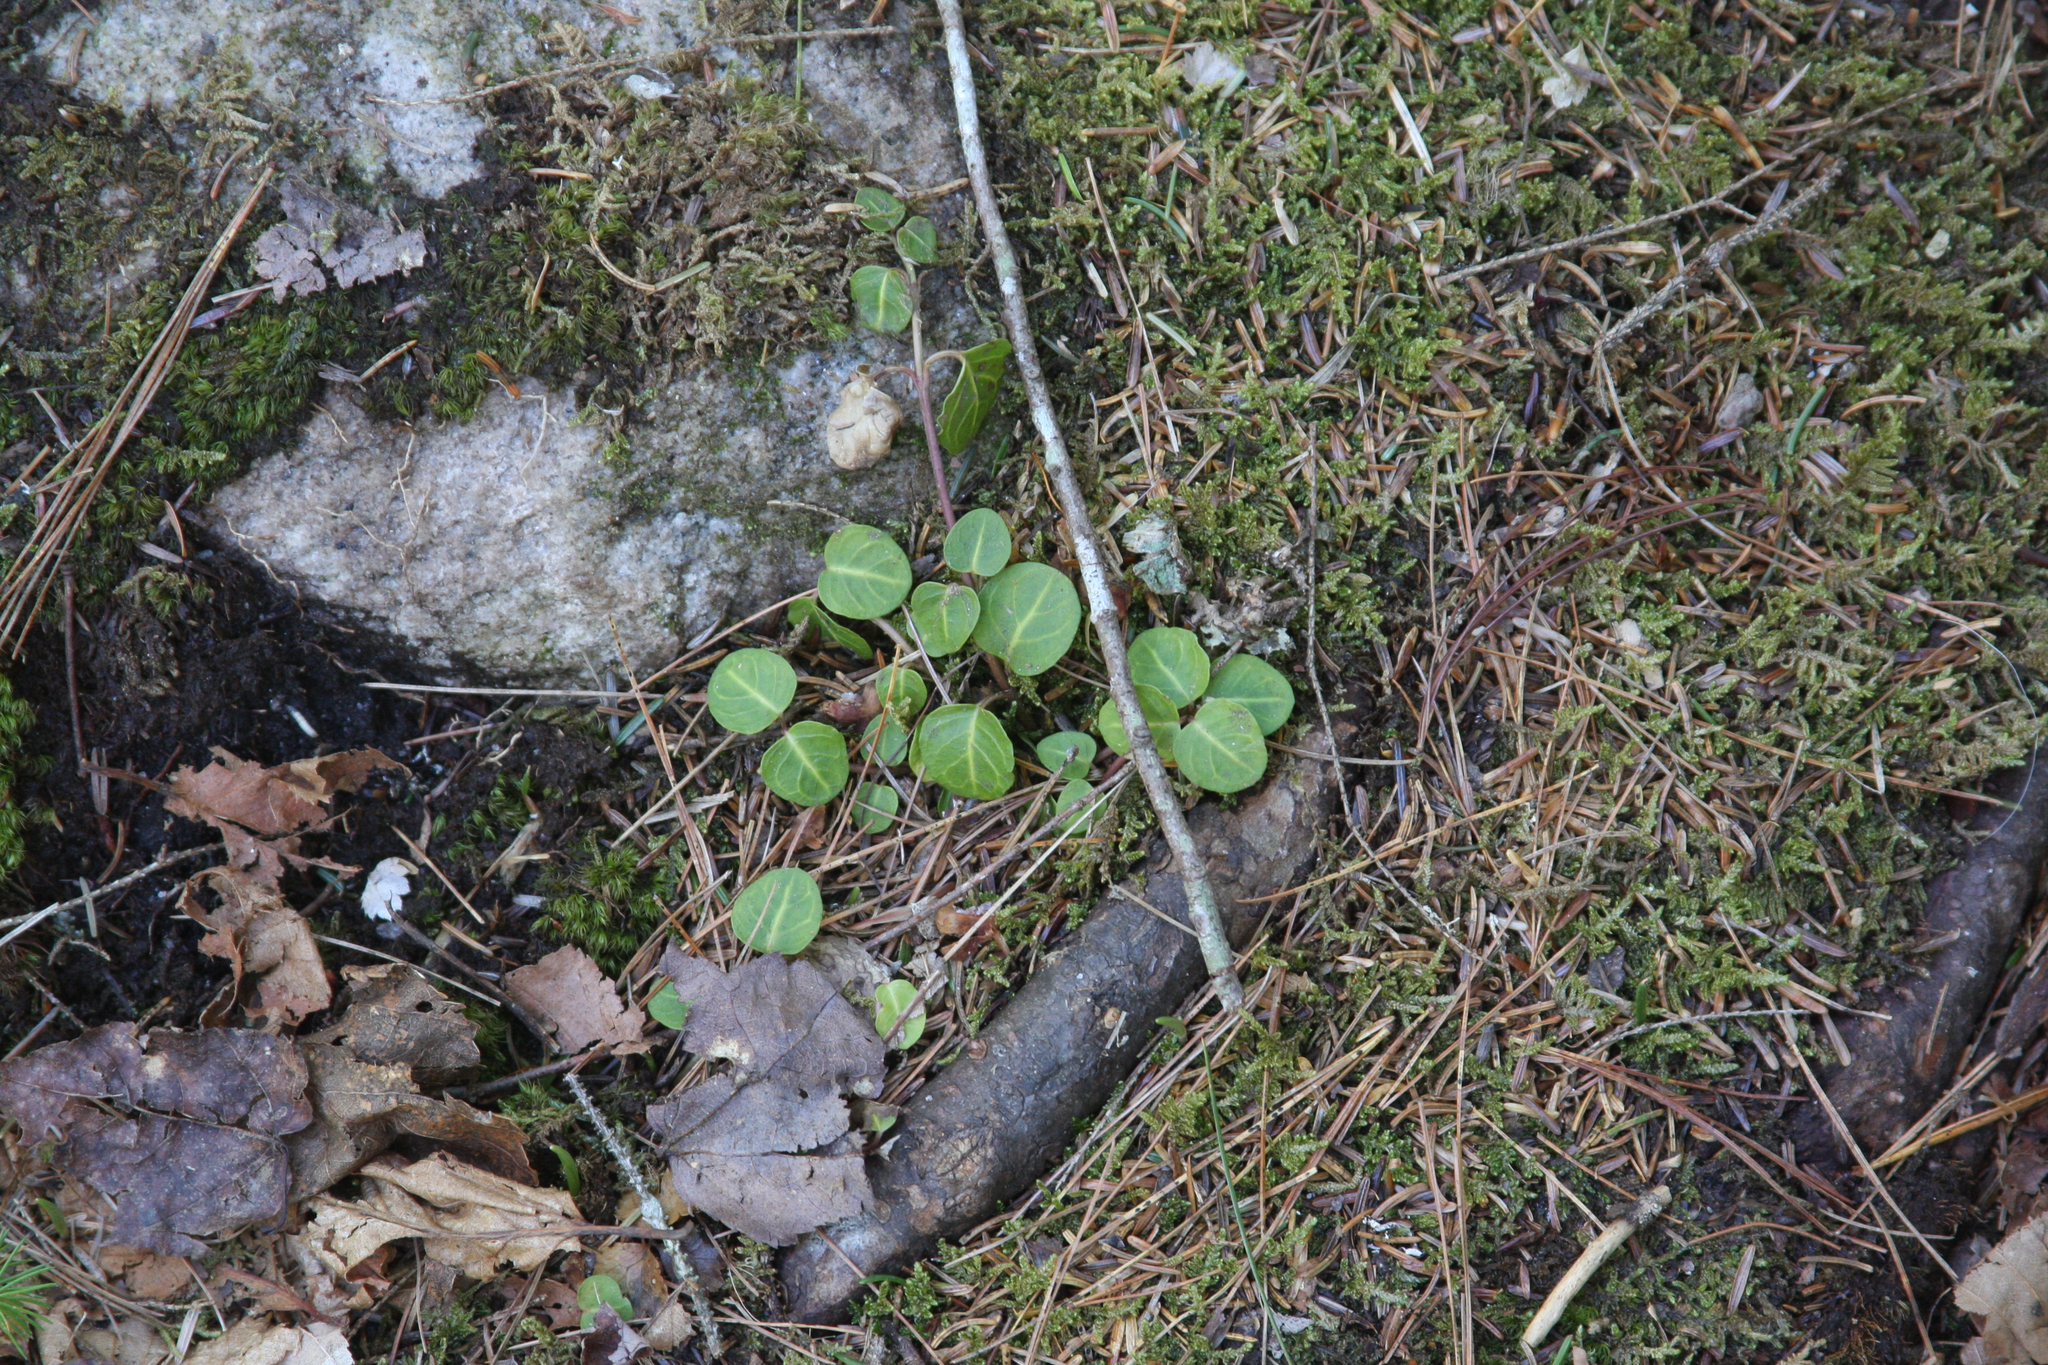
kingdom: Plantae
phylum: Tracheophyta
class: Magnoliopsida
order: Gentianales
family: Rubiaceae
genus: Mitchella
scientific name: Mitchella repens
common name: Partridge-berry
